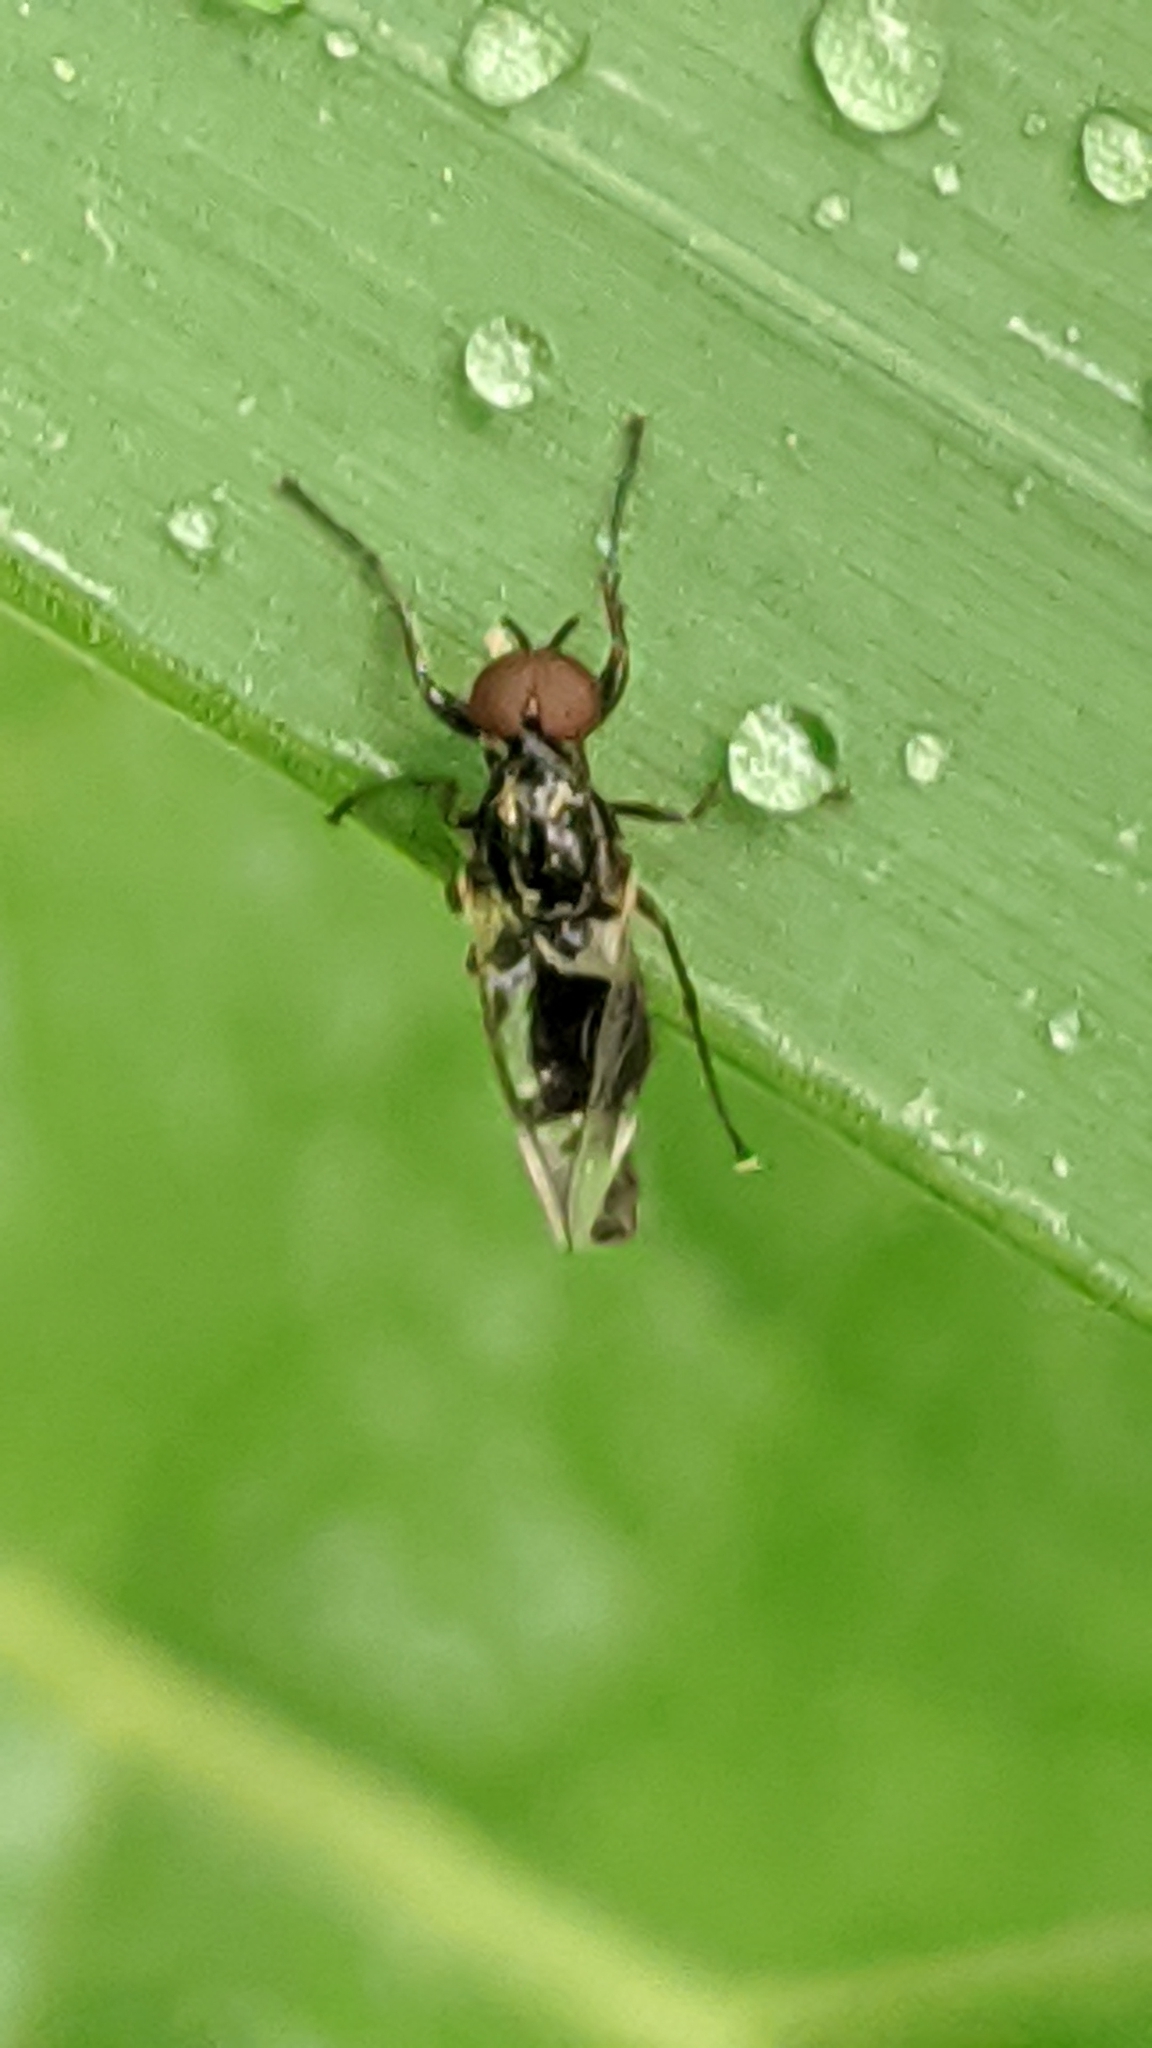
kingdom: Animalia
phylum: Arthropoda
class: Insecta
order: Diptera
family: Bibionidae
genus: Dilophus
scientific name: Dilophus
